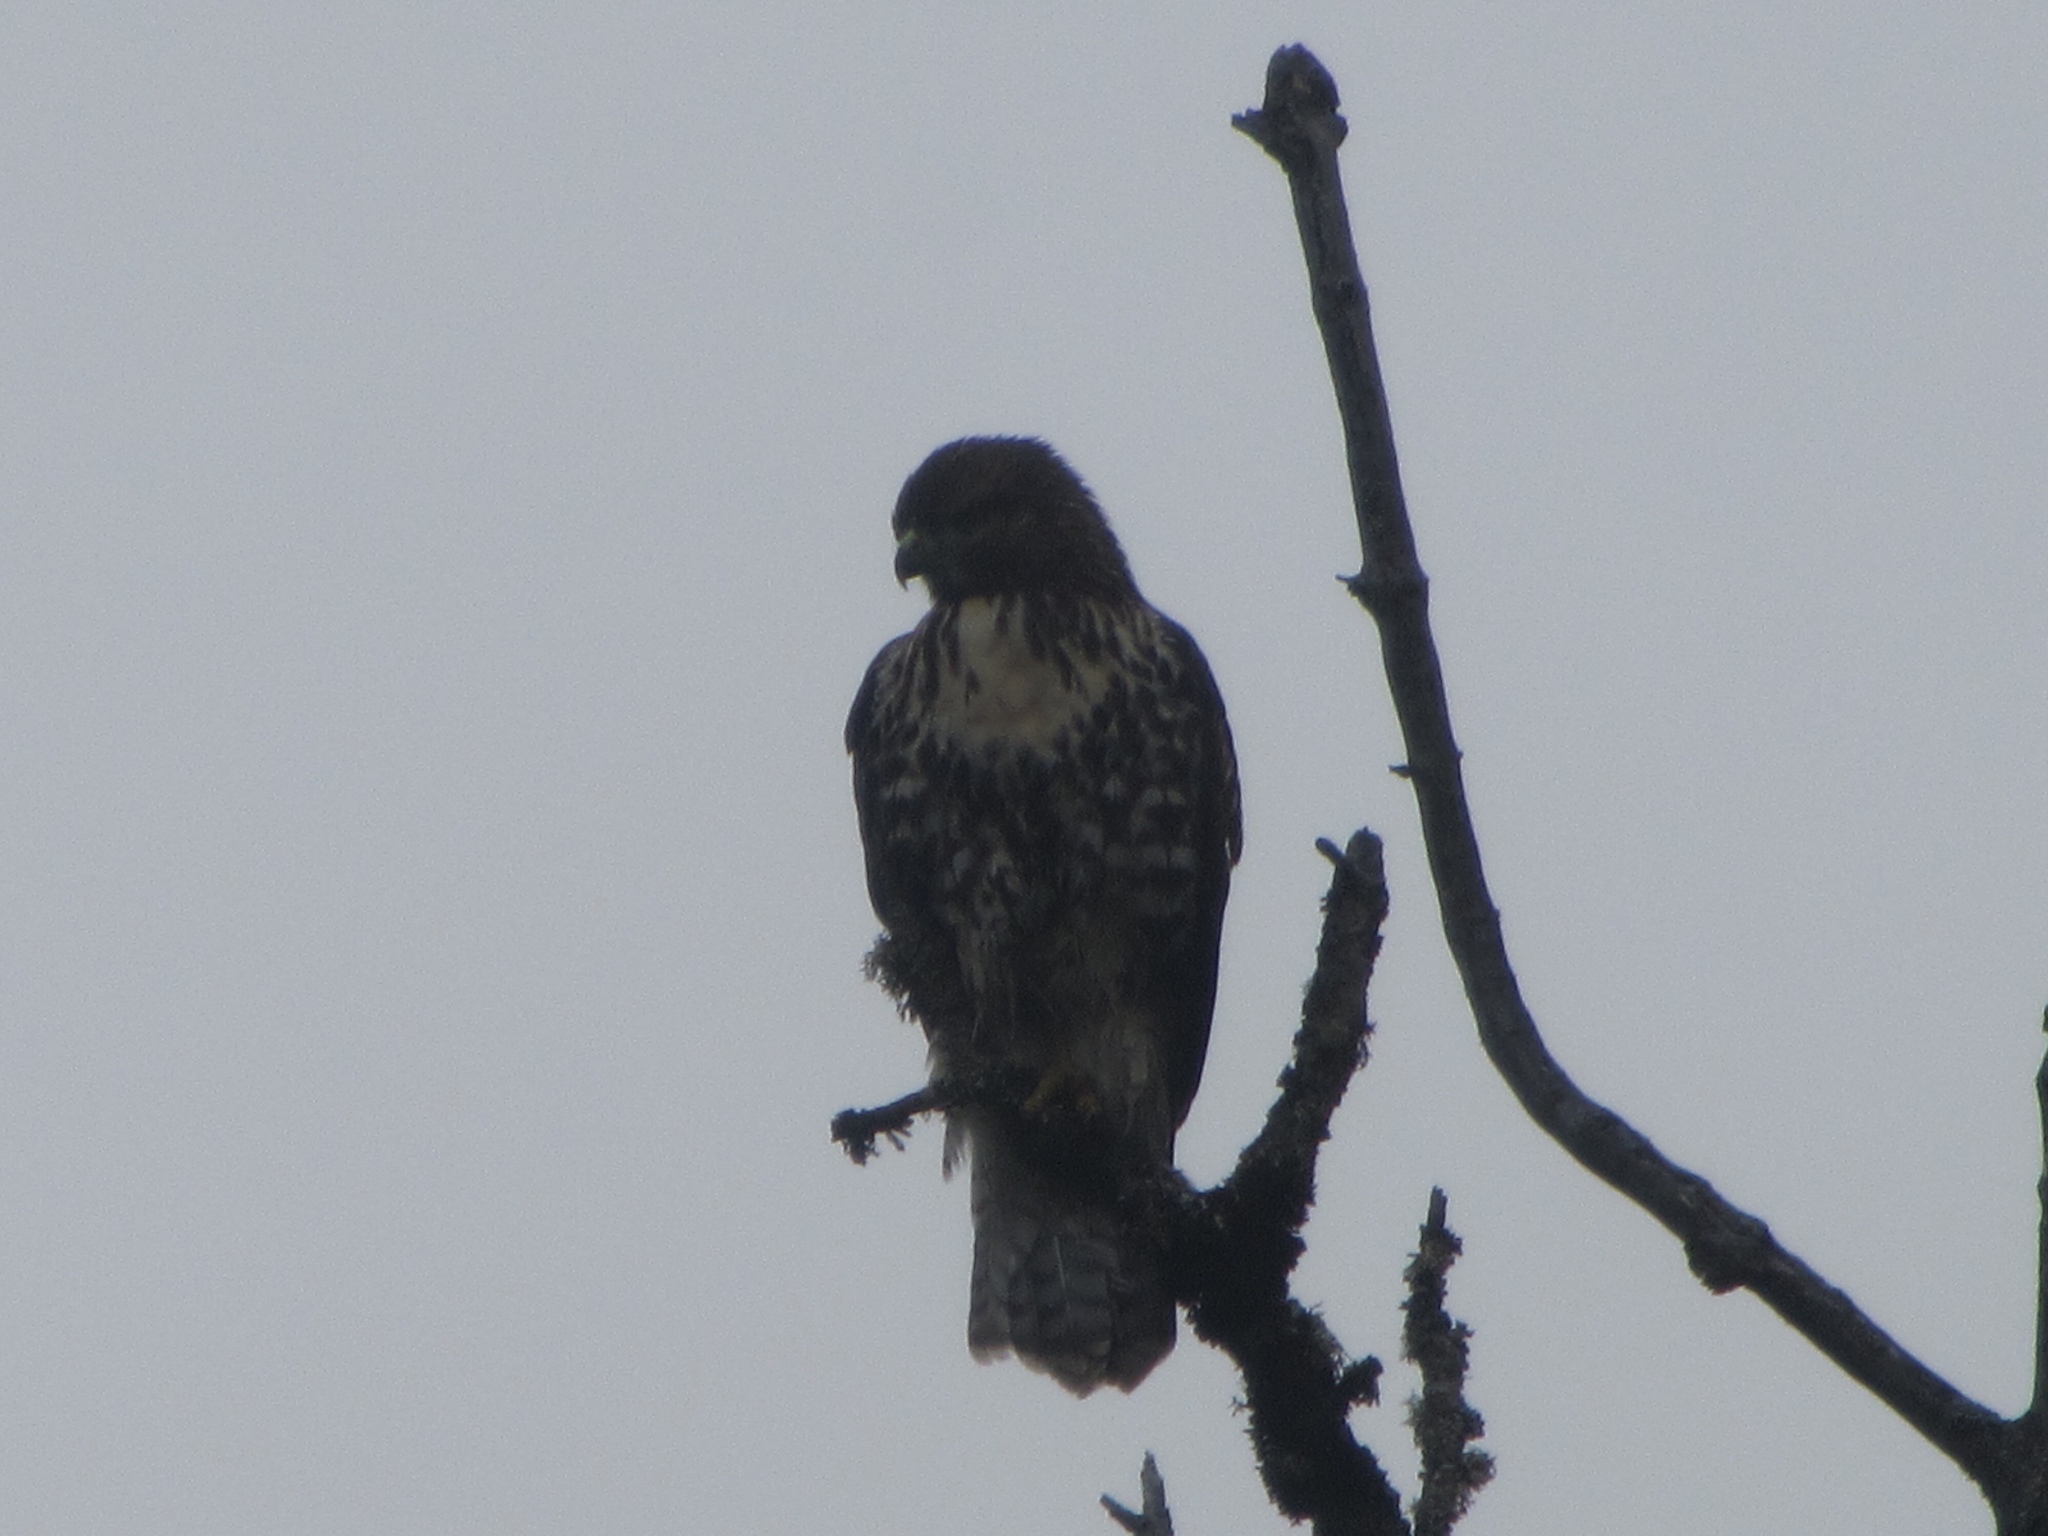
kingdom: Animalia
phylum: Chordata
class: Aves
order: Accipitriformes
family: Accipitridae
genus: Buteo
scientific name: Buteo jamaicensis
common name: Red-tailed hawk
